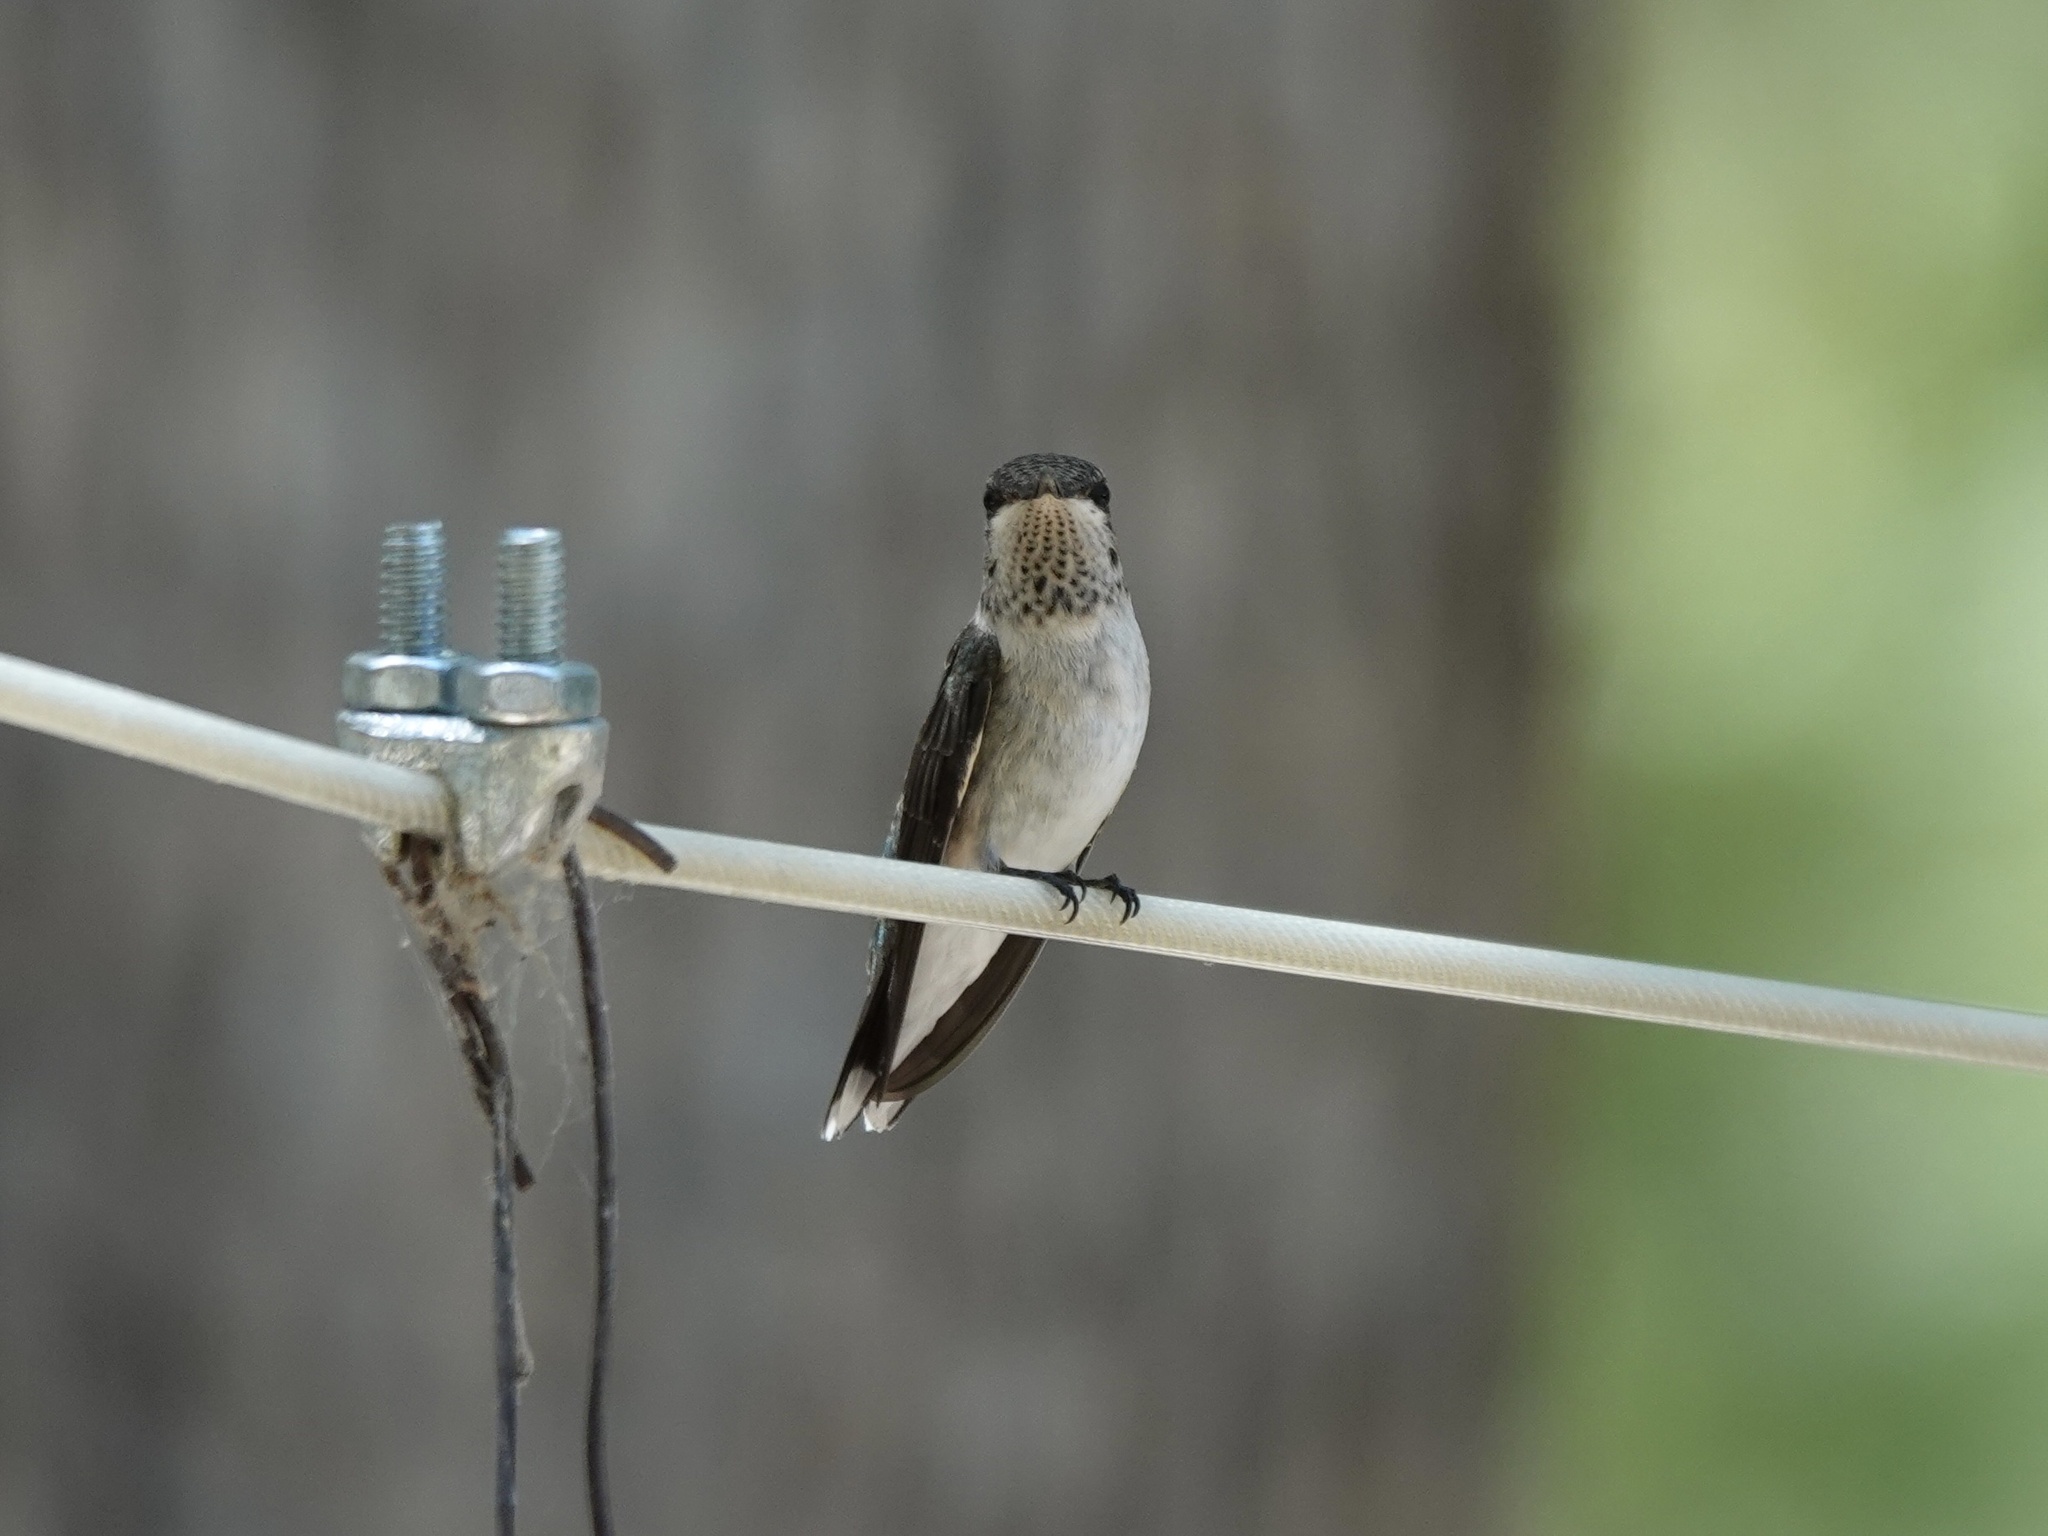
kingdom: Animalia
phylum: Chordata
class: Aves
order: Apodiformes
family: Trochilidae
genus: Archilochus
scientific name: Archilochus alexandri
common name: Black-chinned hummingbird
